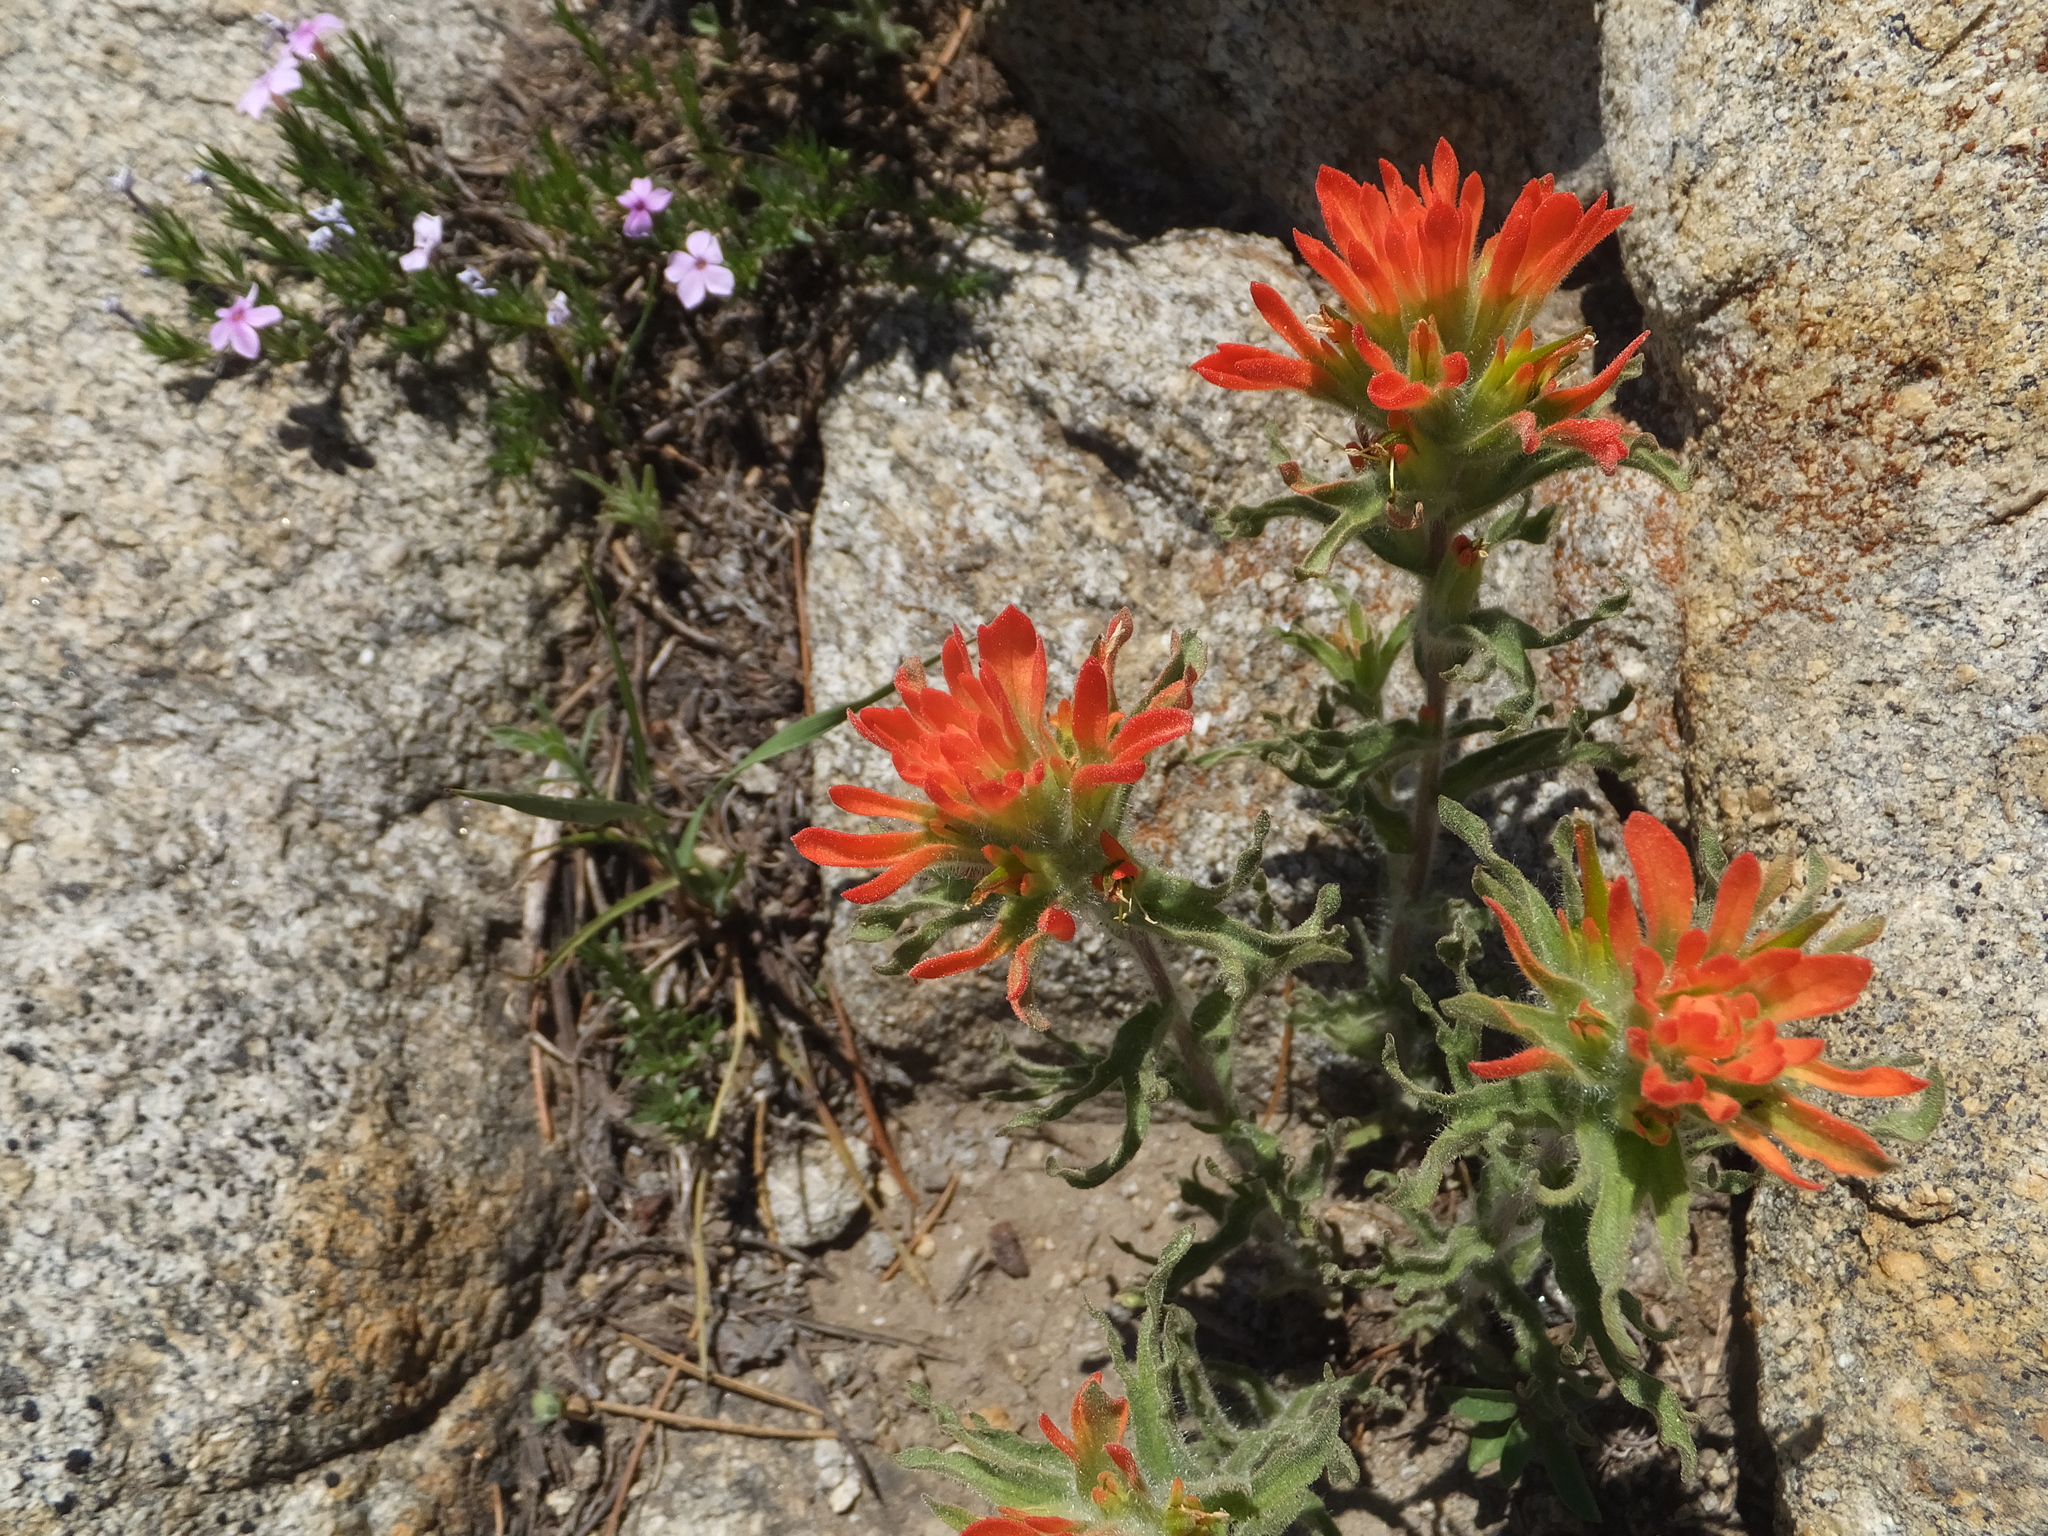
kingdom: Plantae
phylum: Tracheophyta
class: Magnoliopsida
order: Lamiales
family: Orobanchaceae
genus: Castilleja
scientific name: Castilleja applegatei
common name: Wavy-leaf paintbrush
